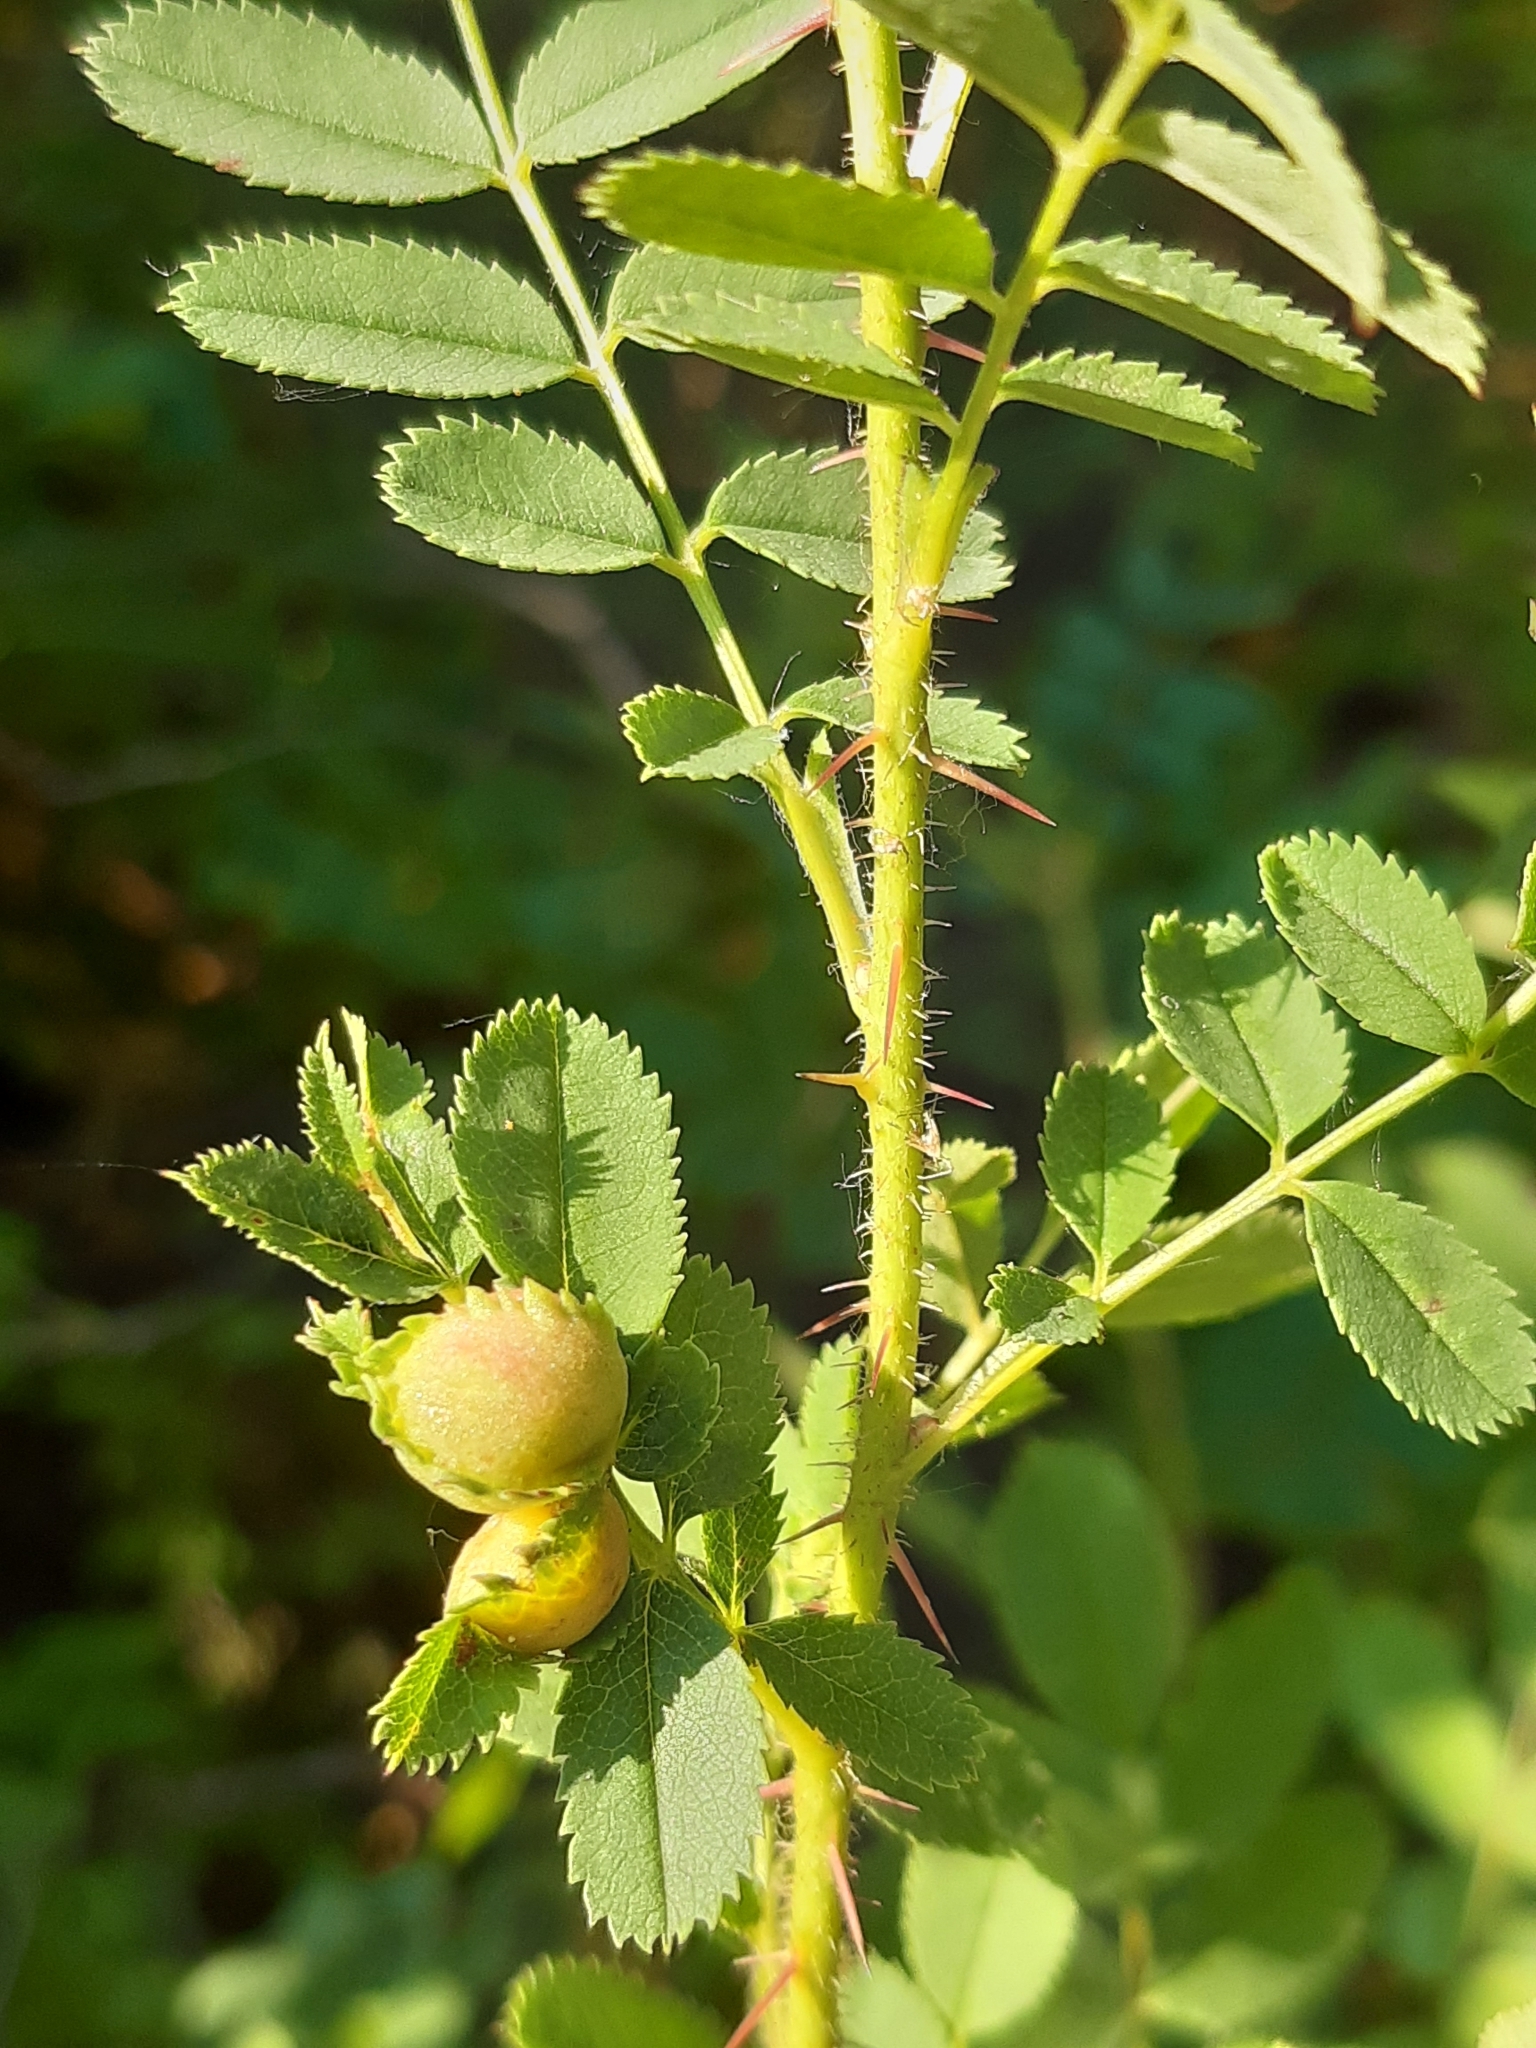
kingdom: Animalia
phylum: Arthropoda
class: Insecta
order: Hymenoptera
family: Cynipidae
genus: Diplolepis
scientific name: Diplolepis spinosissimae
